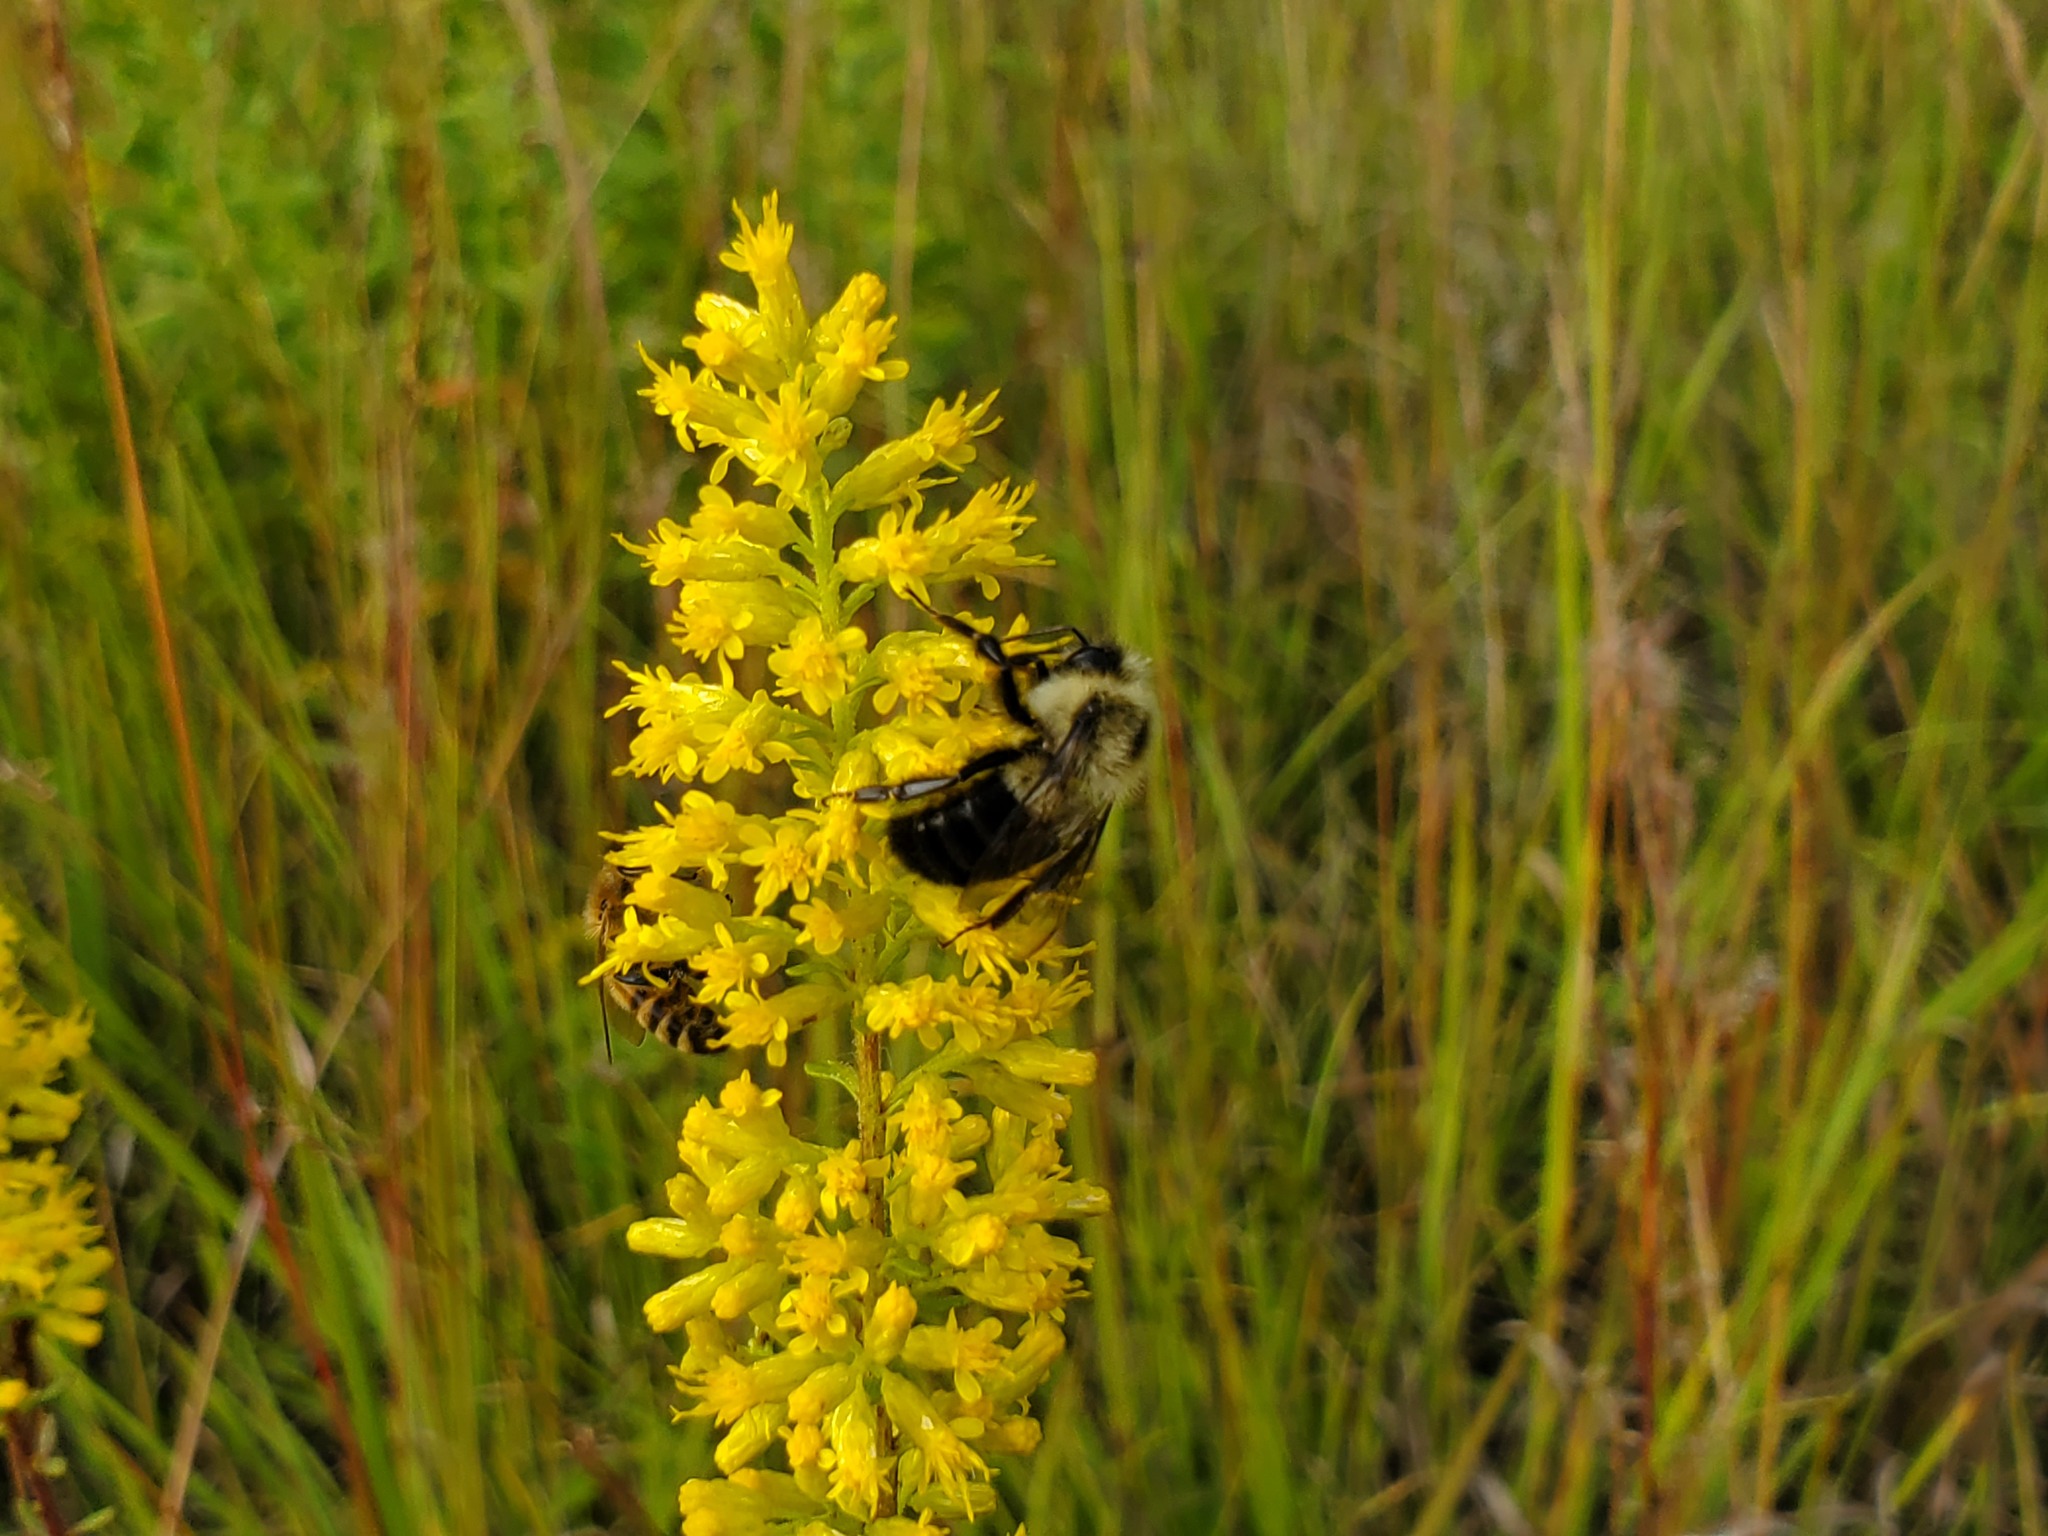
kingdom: Animalia
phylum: Arthropoda
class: Insecta
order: Hymenoptera
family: Apidae
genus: Bombus
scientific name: Bombus impatiens
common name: Common eastern bumble bee
